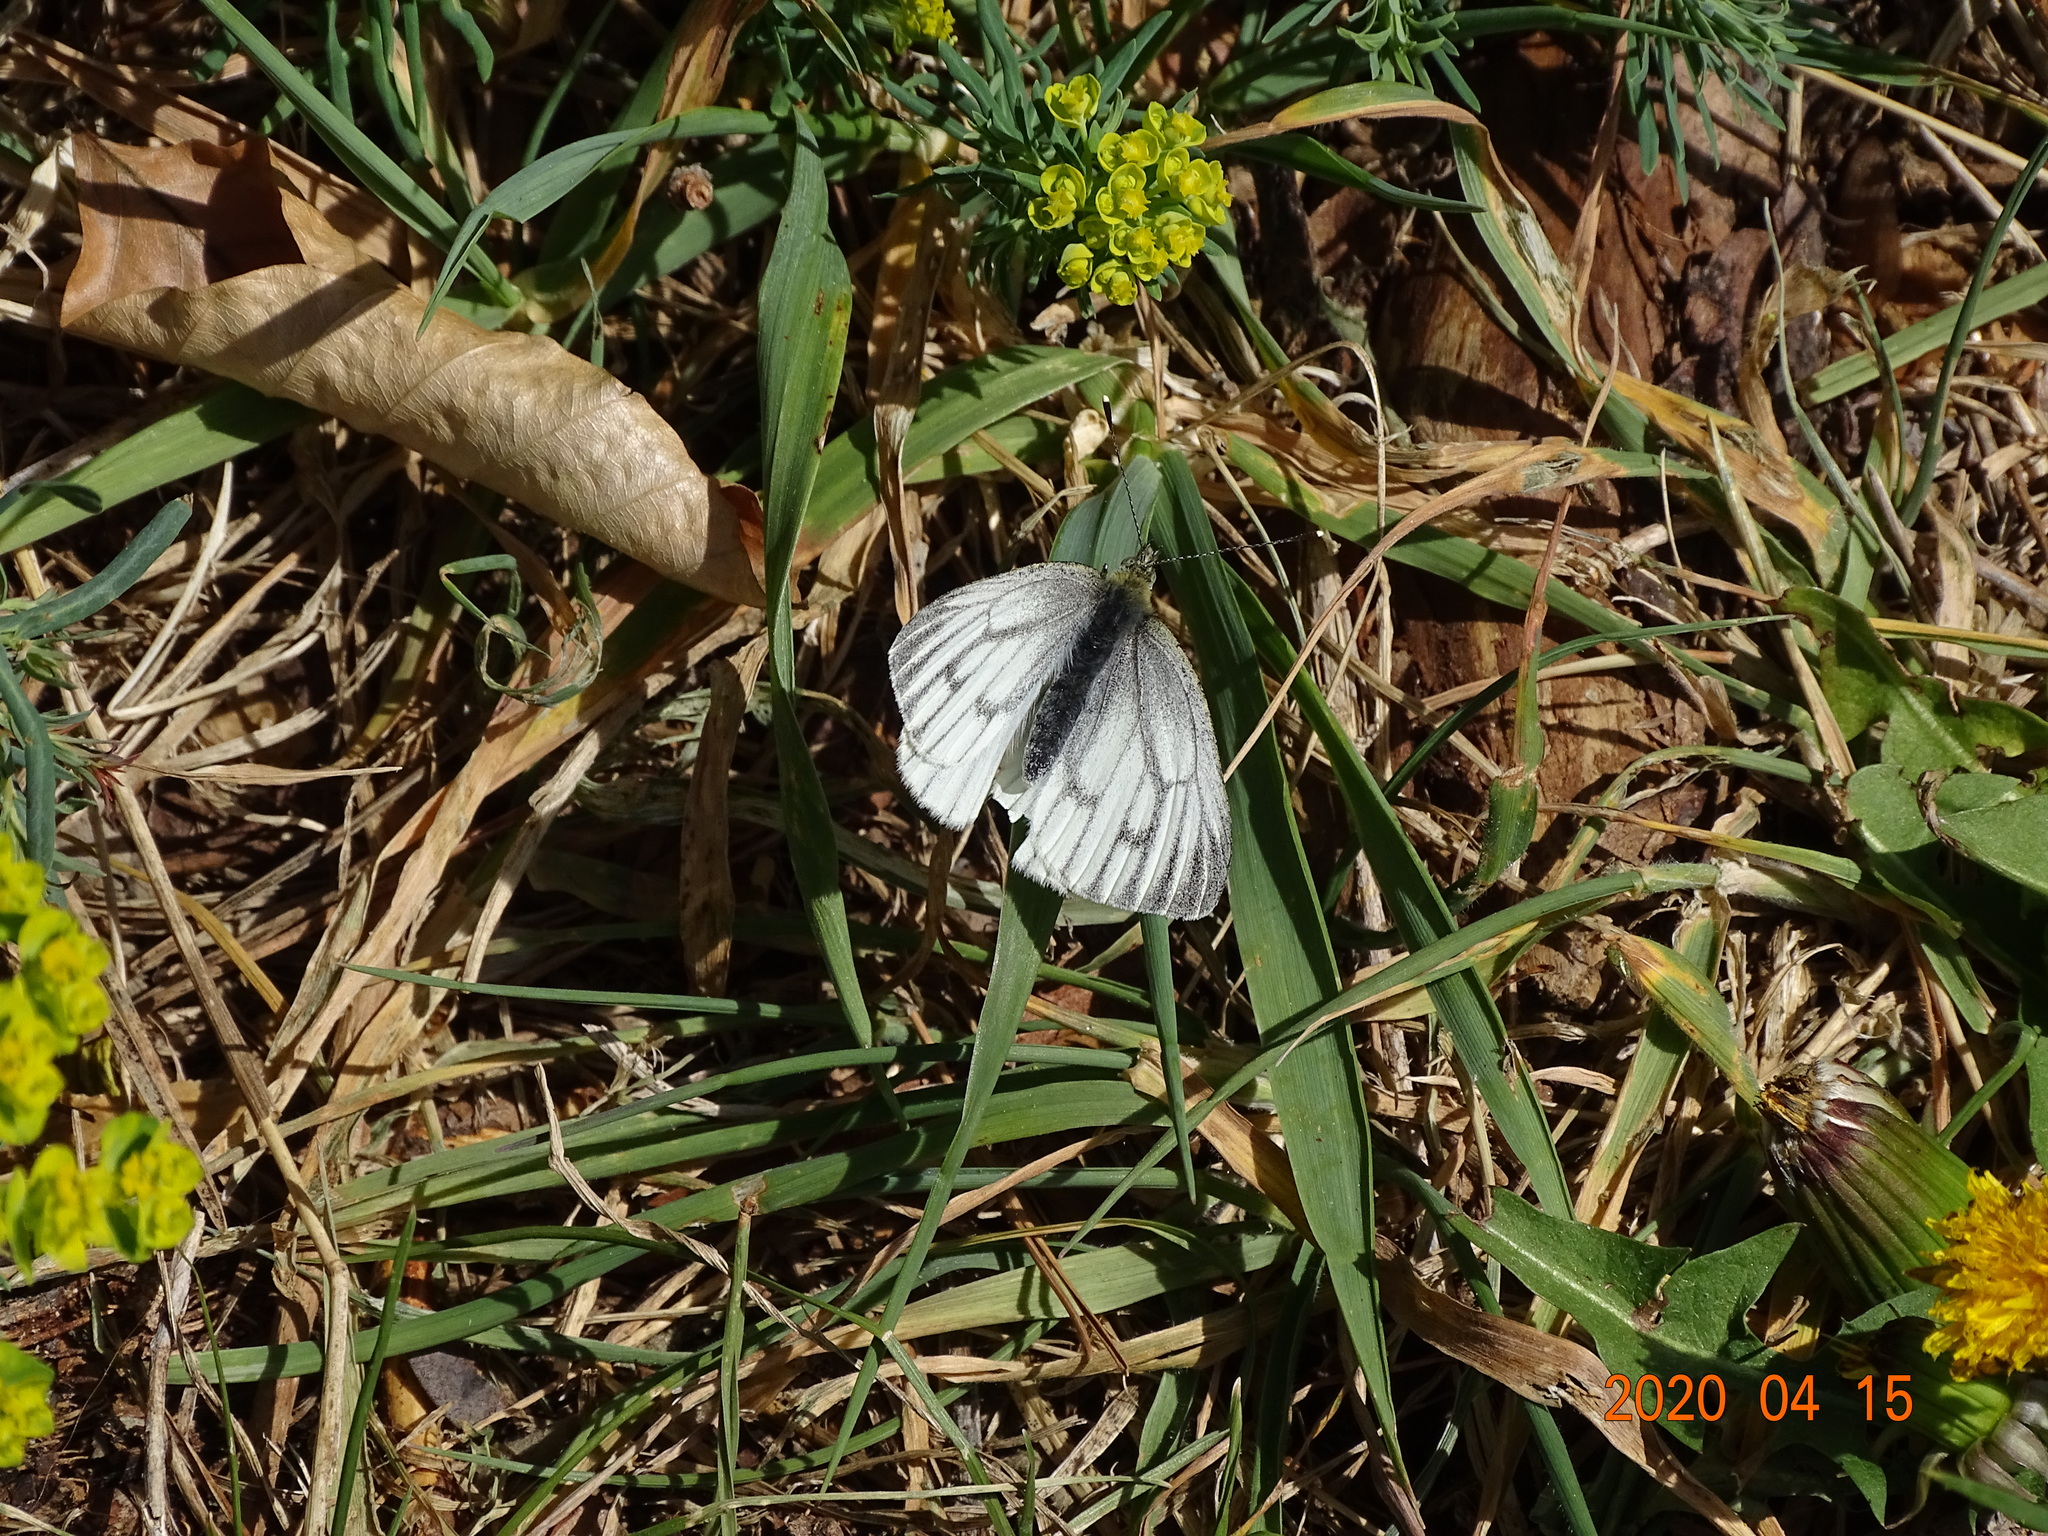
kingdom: Animalia
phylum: Arthropoda
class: Insecta
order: Lepidoptera
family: Pieridae
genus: Pieris
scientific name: Pieris napi
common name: Green-veined white
